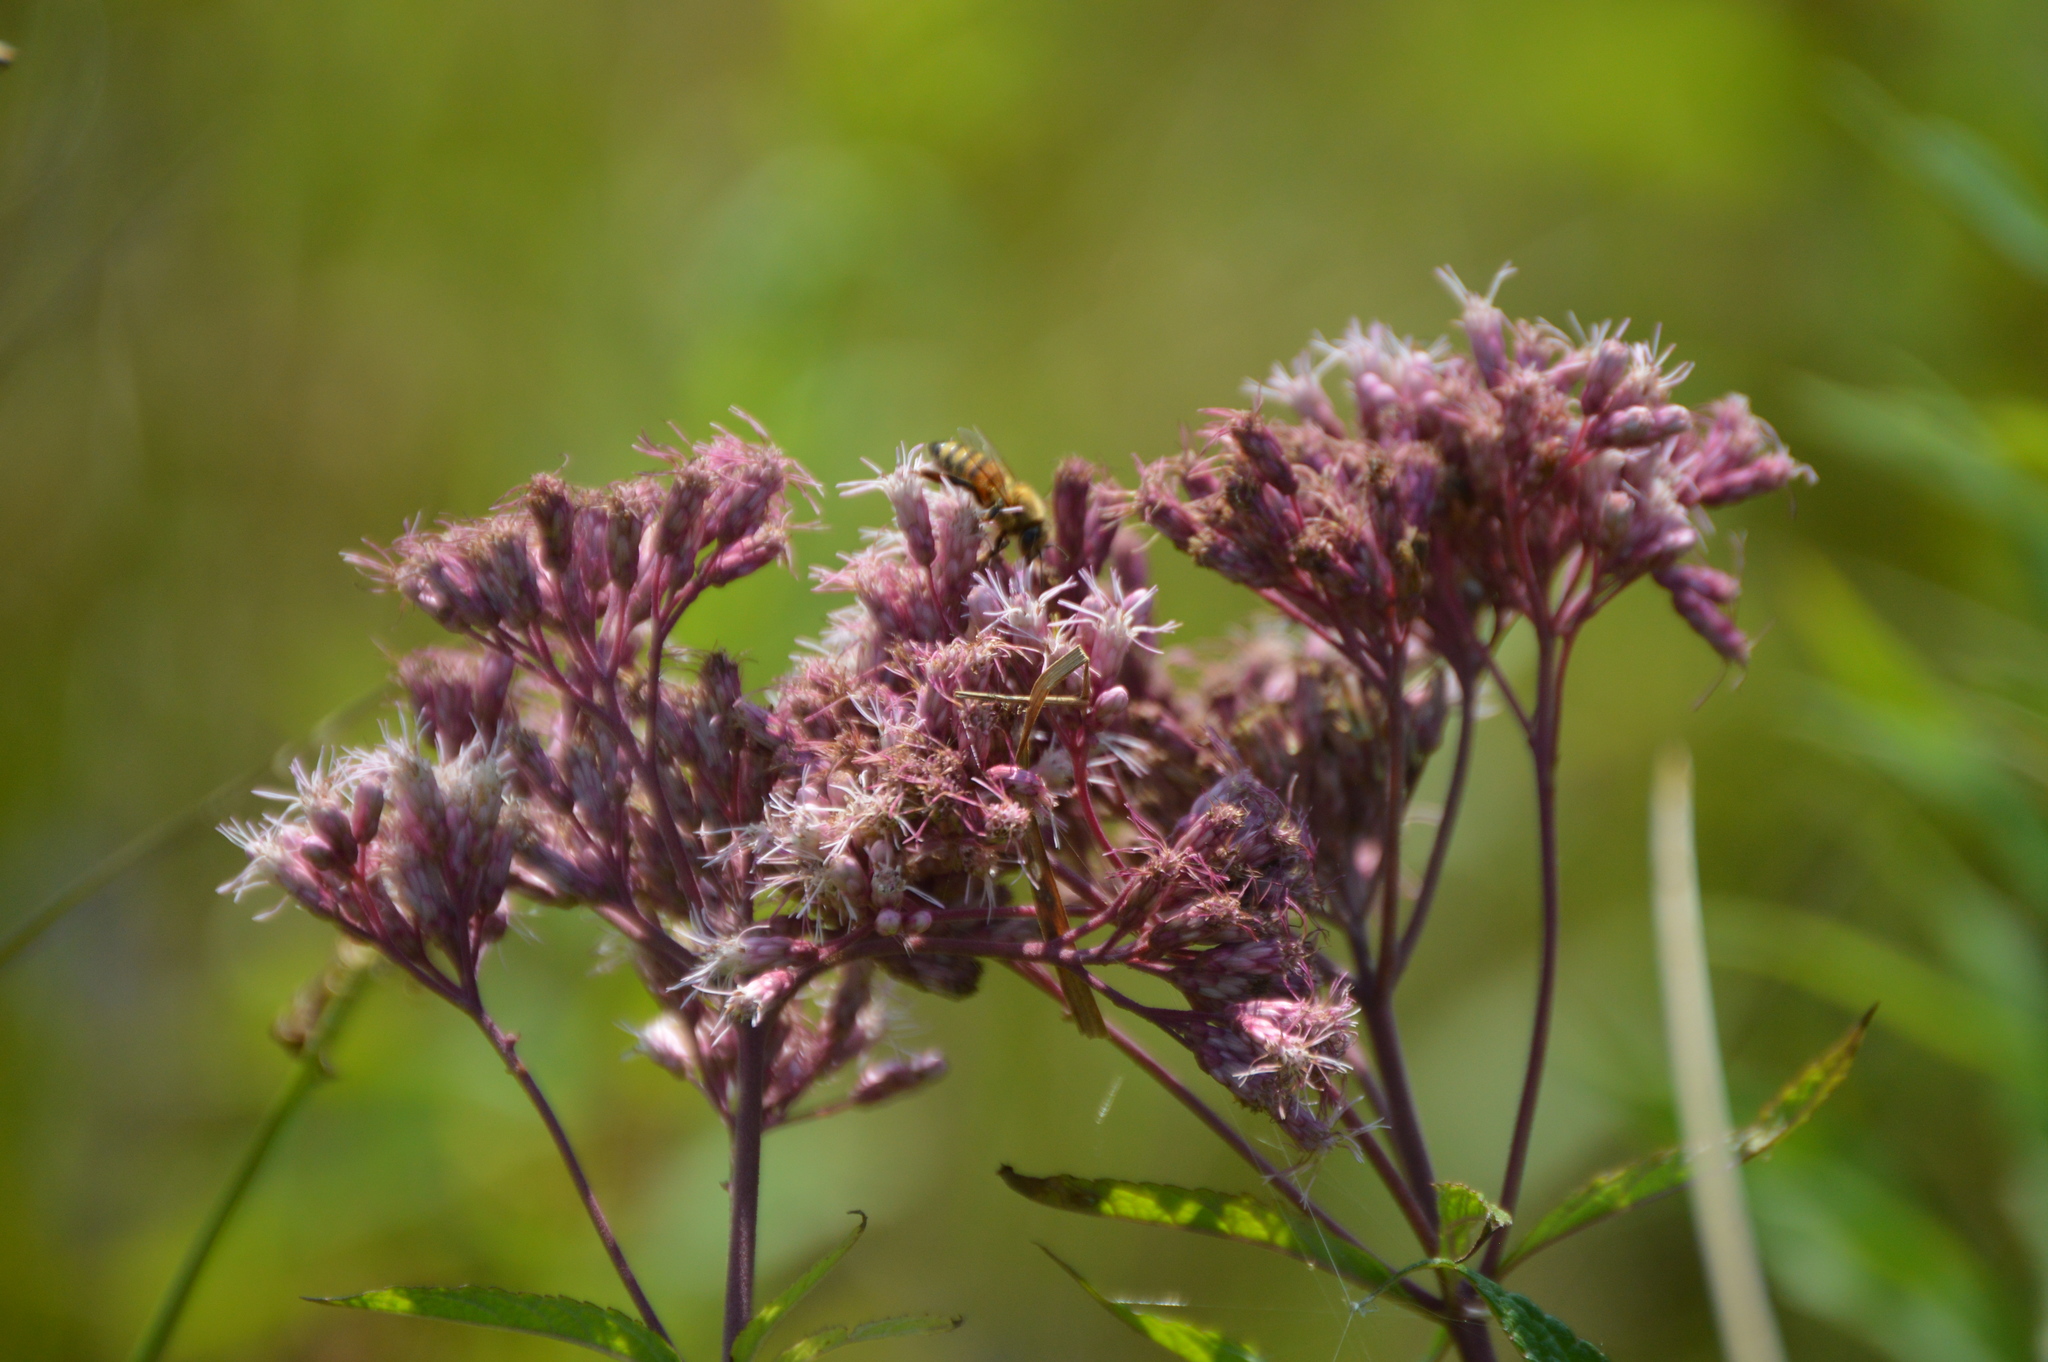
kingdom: Plantae
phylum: Tracheophyta
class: Magnoliopsida
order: Asterales
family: Asteraceae
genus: Eutrochium
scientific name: Eutrochium maculatum
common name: Spotted joe pye weed
